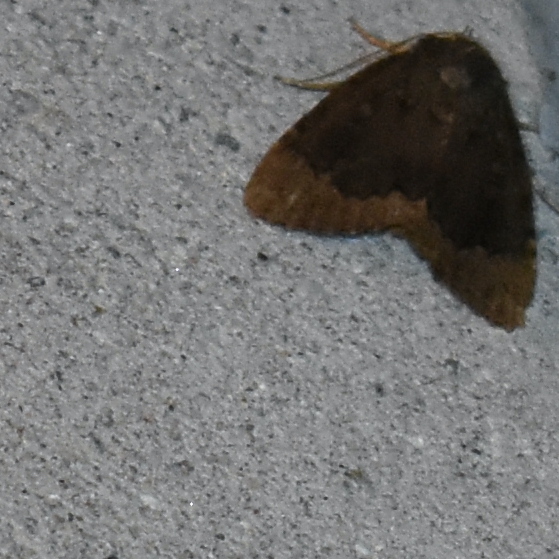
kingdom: Animalia
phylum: Arthropoda
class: Insecta
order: Lepidoptera
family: Noctuidae
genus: Amphipyra
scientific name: Amphipyra pyramidoides
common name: American copper underwing
